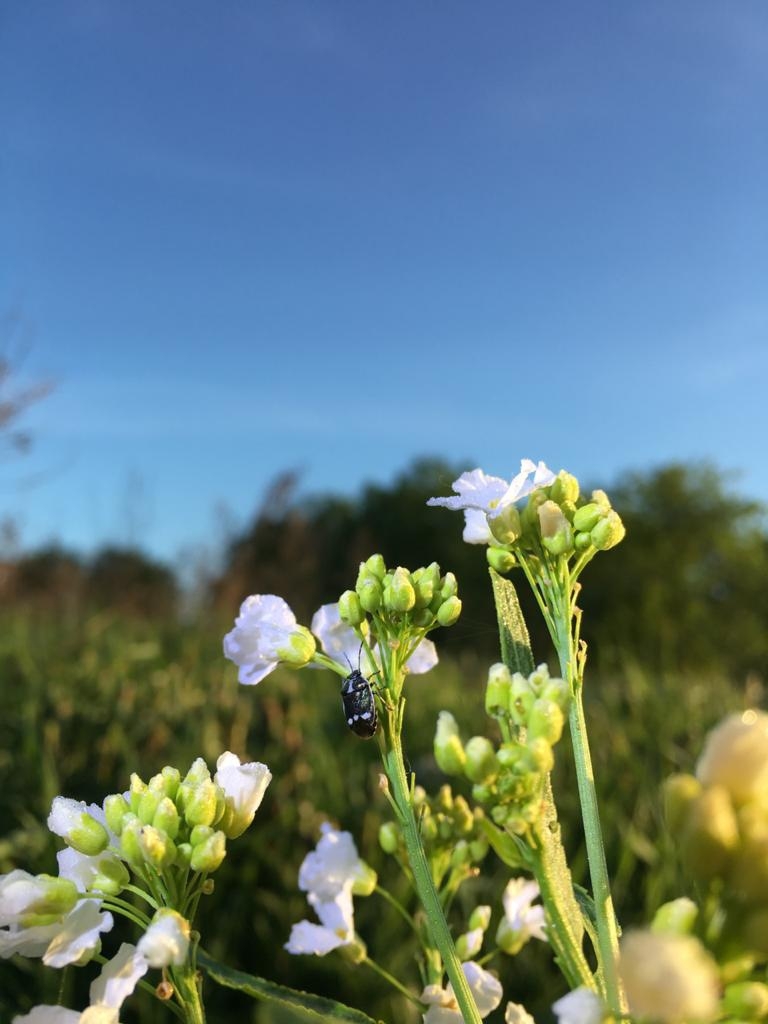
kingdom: Animalia
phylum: Arthropoda
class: Insecta
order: Hemiptera
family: Pentatomidae
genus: Eurydema
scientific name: Eurydema oleracea
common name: Cabbage bug
